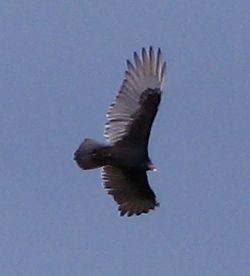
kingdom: Animalia
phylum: Chordata
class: Aves
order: Accipitriformes
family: Cathartidae
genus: Cathartes
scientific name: Cathartes aura
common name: Turkey vulture
